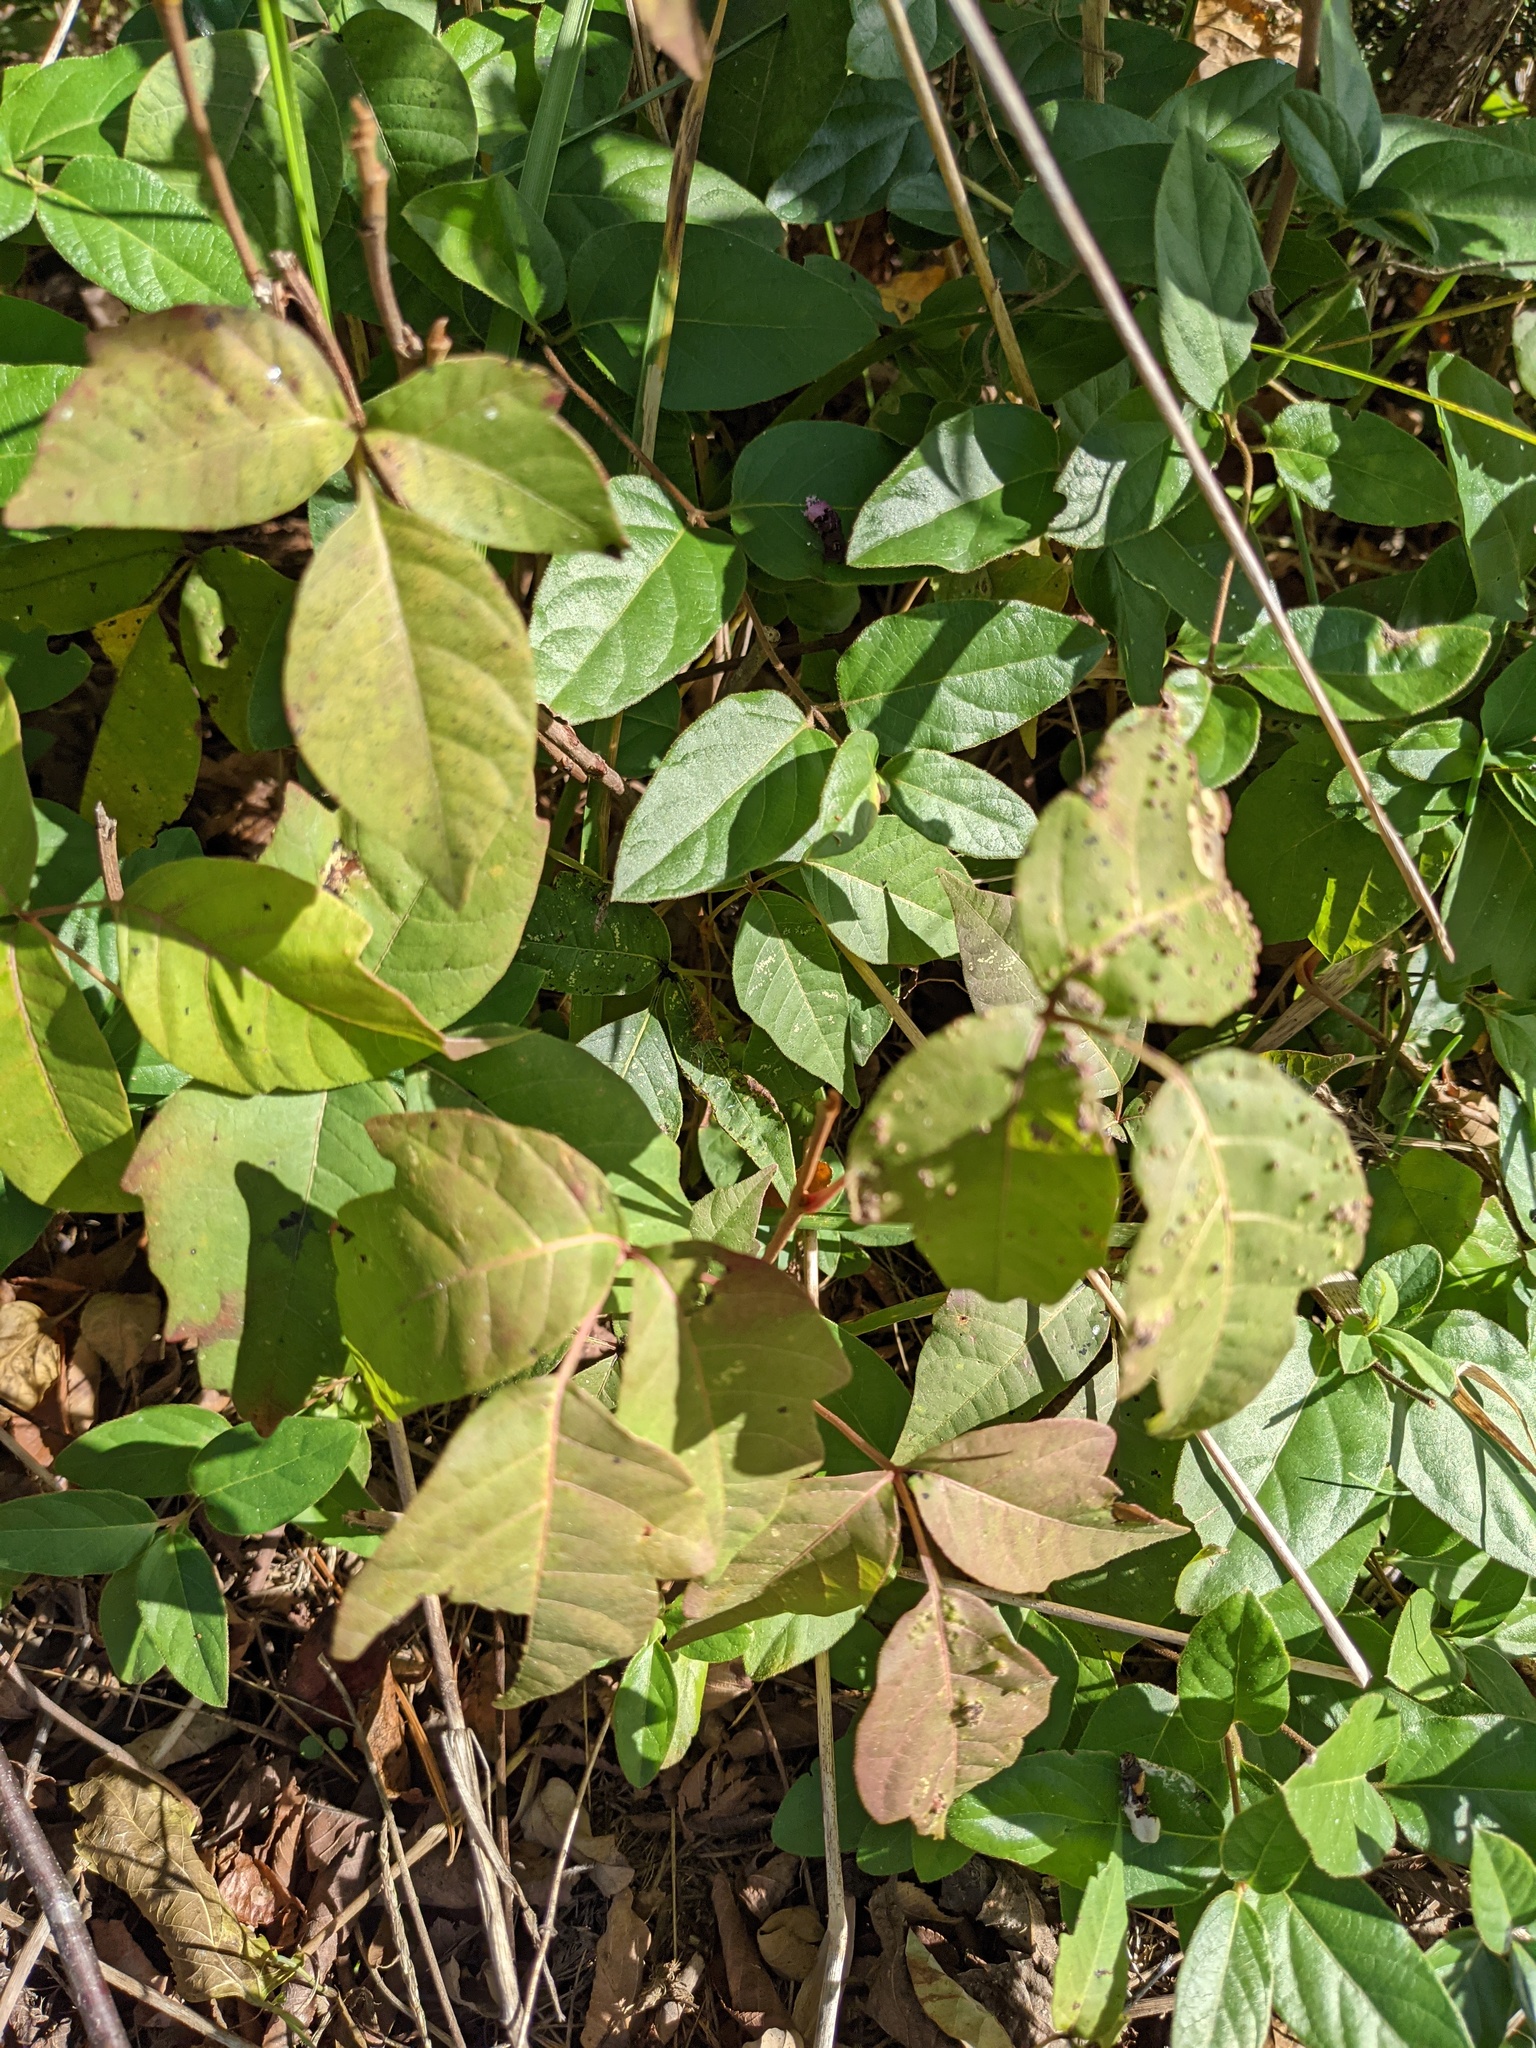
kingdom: Animalia
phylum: Arthropoda
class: Arachnida
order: Trombidiformes
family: Eriophyidae
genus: Aculops
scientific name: Aculops
